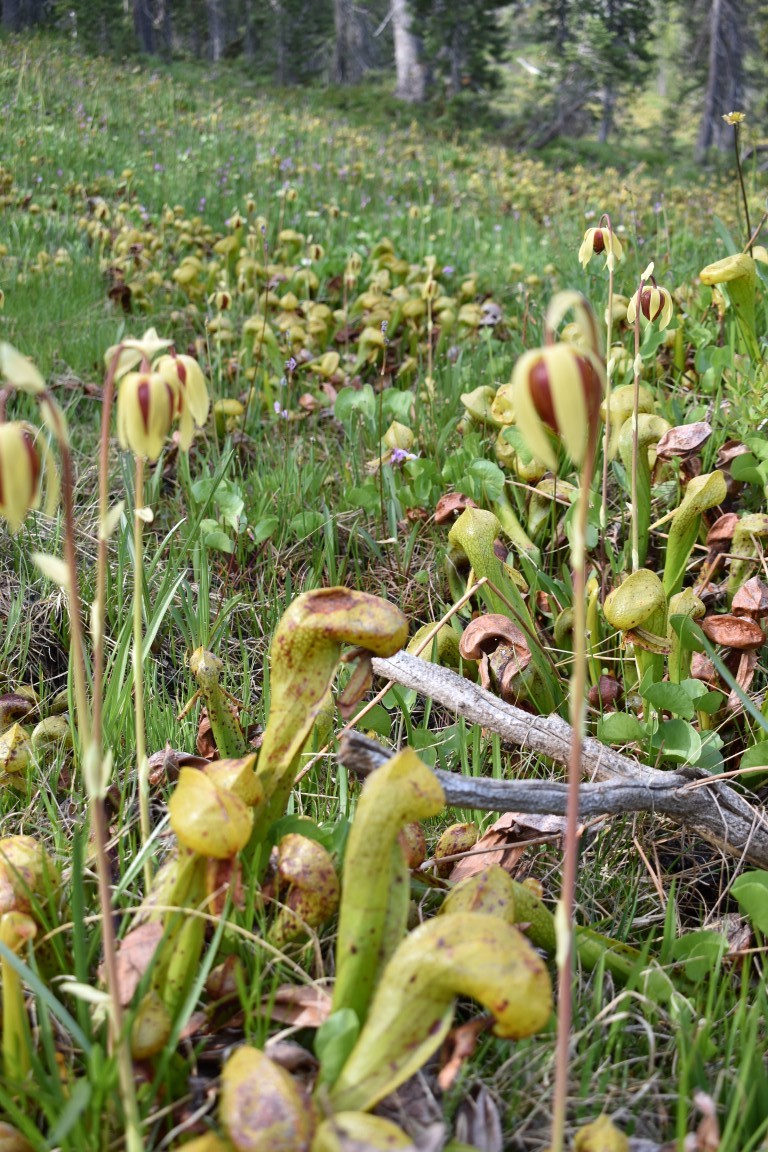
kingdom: Plantae
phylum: Tracheophyta
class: Magnoliopsida
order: Ericales
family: Sarraceniaceae
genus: Darlingtonia
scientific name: Darlingtonia californica
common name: California pitcher plant
